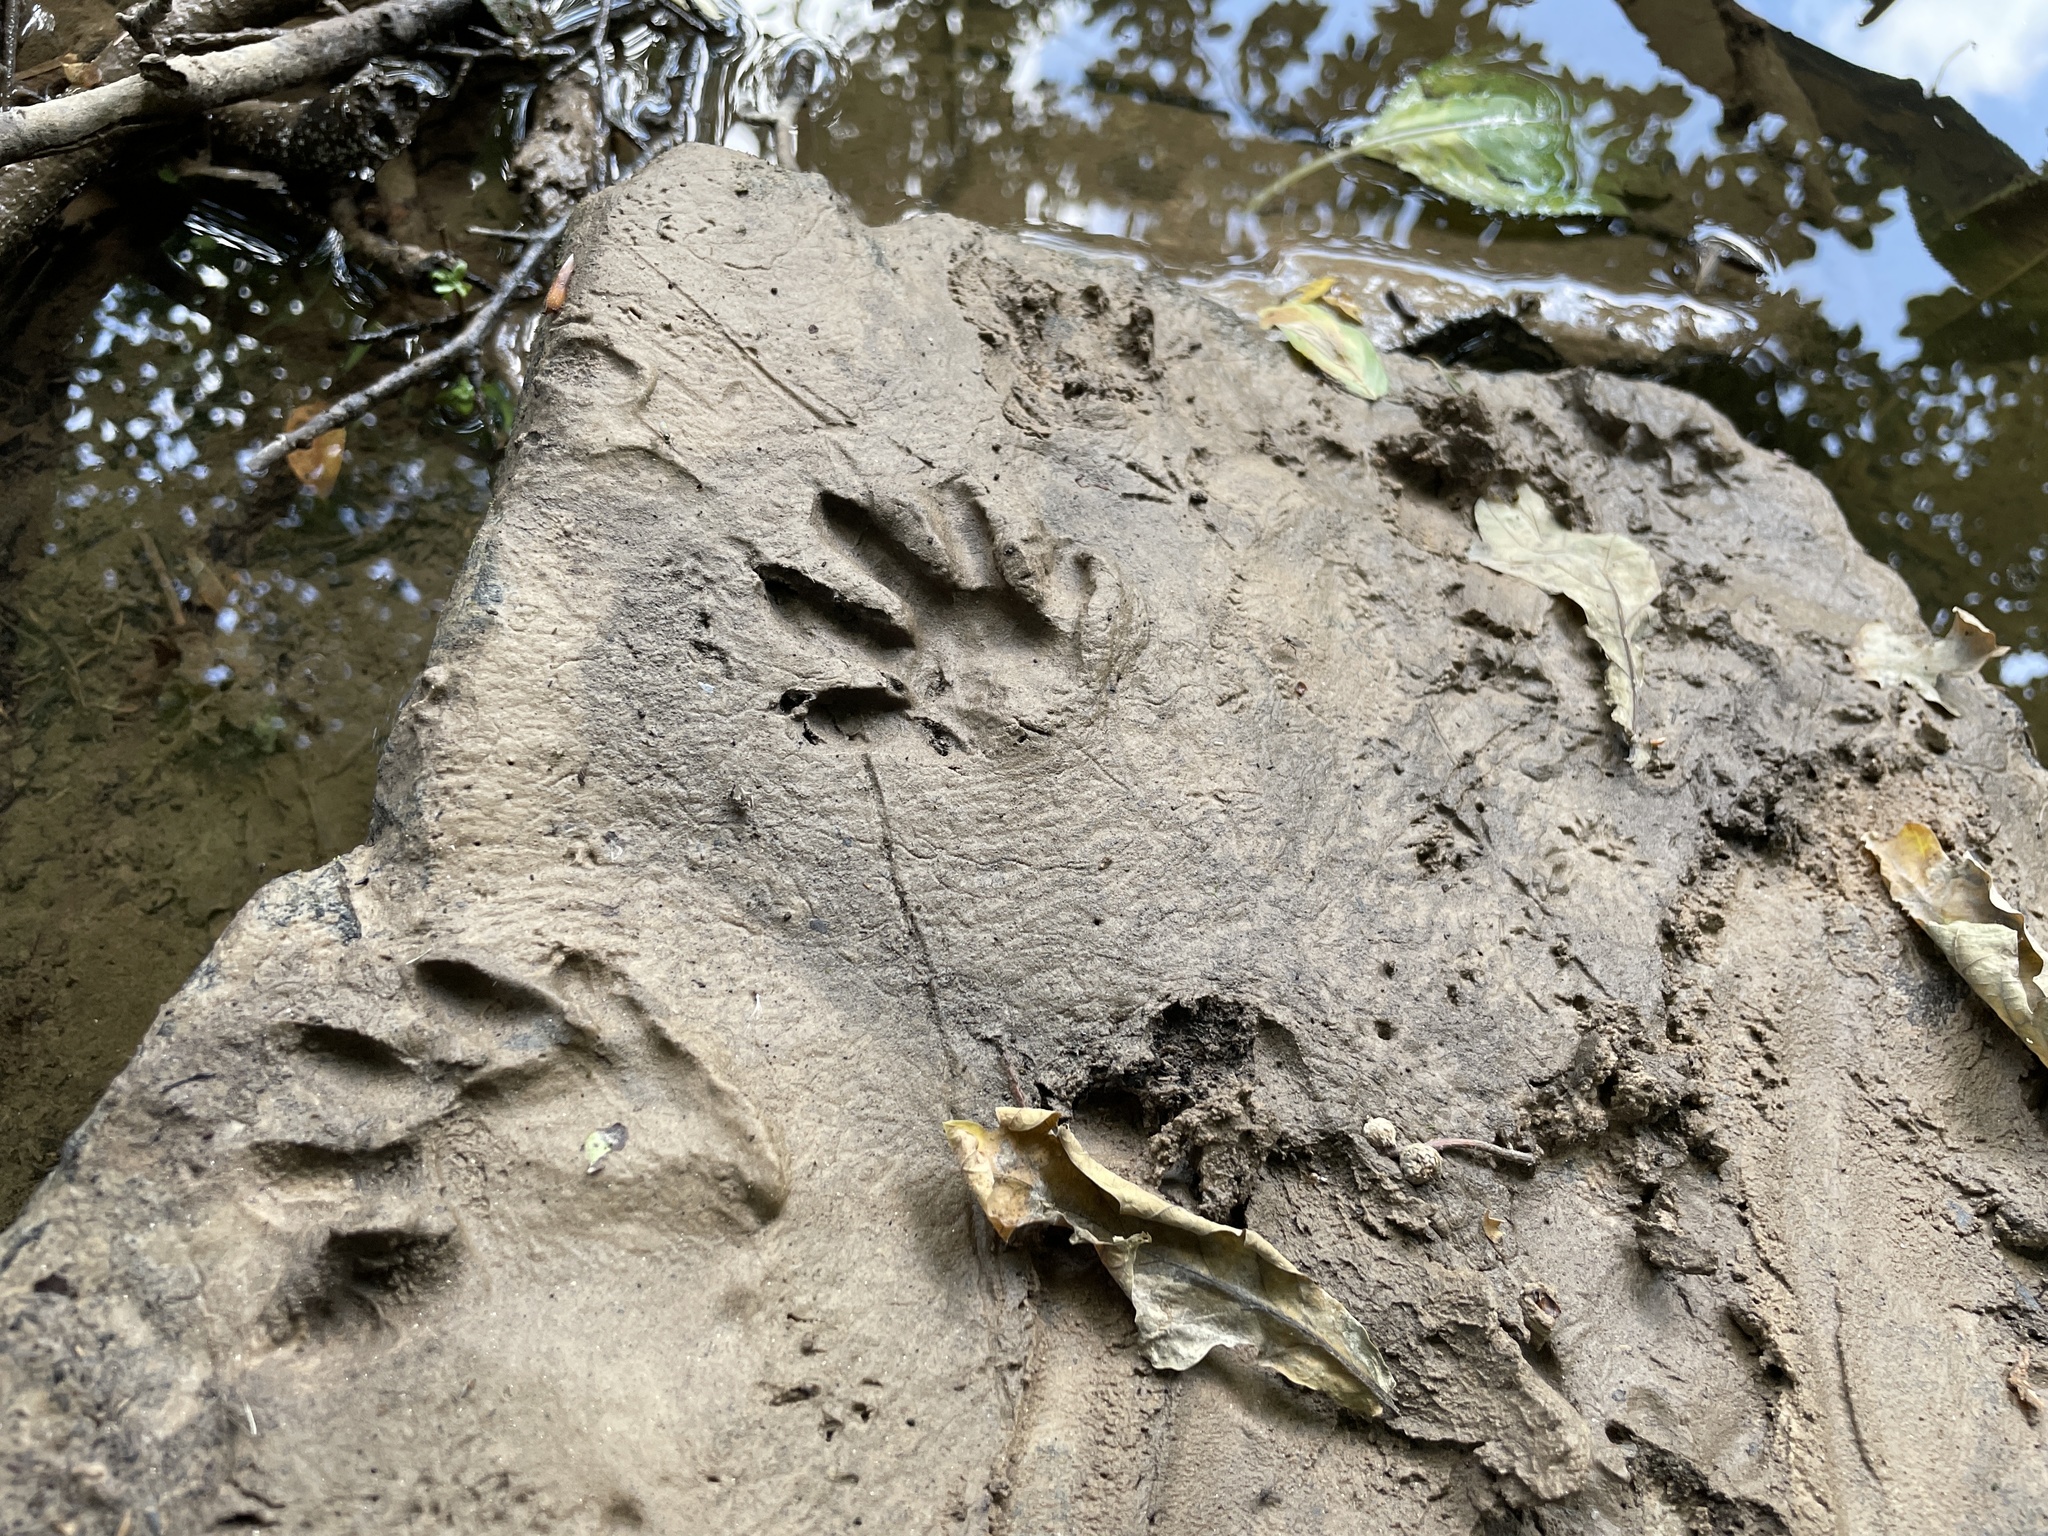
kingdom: Animalia
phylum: Chordata
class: Mammalia
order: Carnivora
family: Procyonidae
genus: Procyon
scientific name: Procyon lotor
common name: Raccoon
